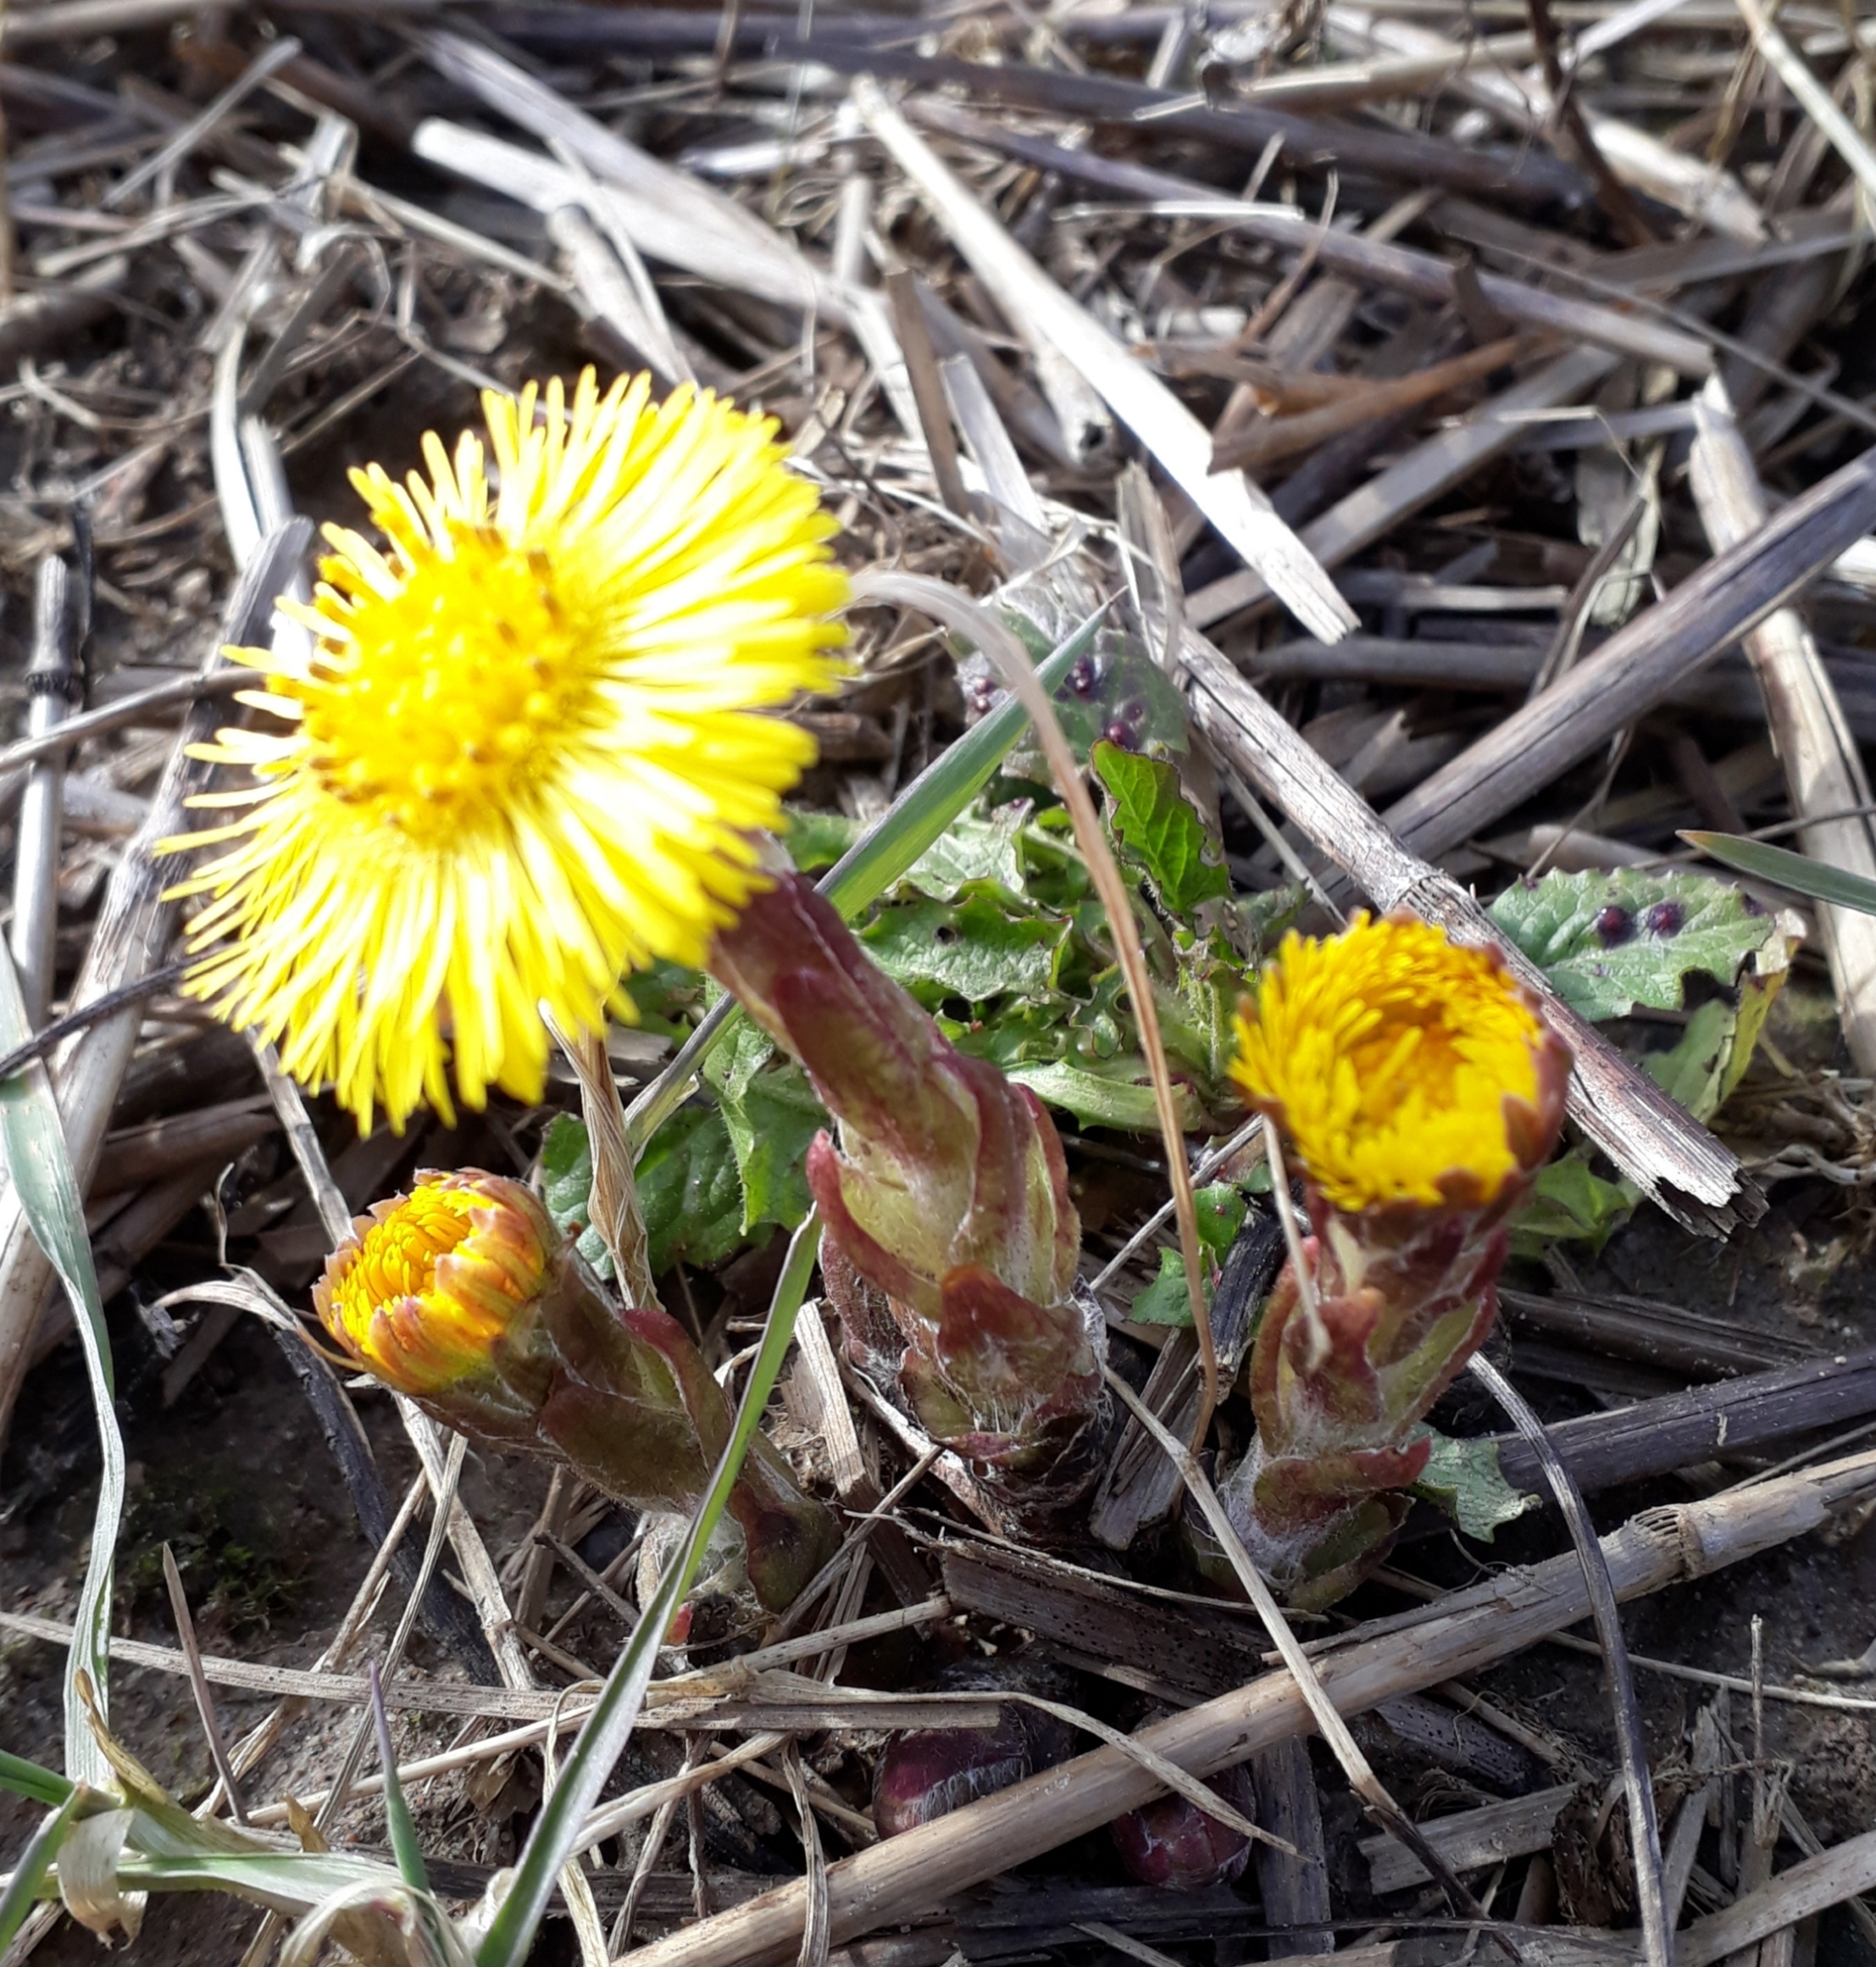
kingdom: Plantae
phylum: Tracheophyta
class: Magnoliopsida
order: Asterales
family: Asteraceae
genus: Tussilago
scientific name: Tussilago farfara
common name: Coltsfoot
